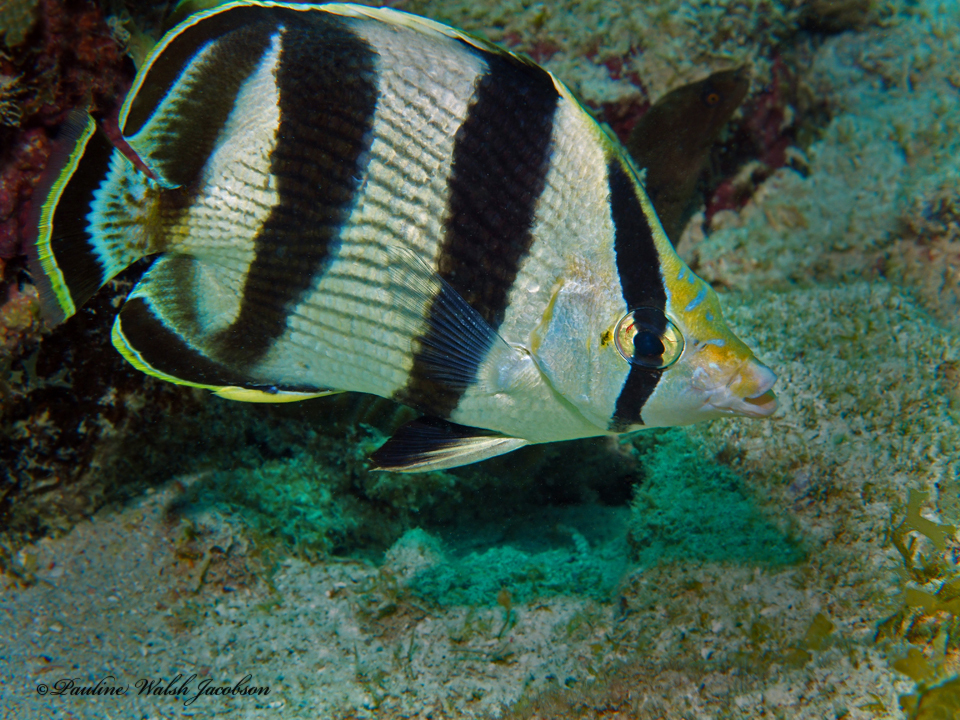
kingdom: Animalia
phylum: Chordata
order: Perciformes
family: Chaetodontidae
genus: Chaetodon
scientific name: Chaetodon striatus
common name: Banded butterflyfish
